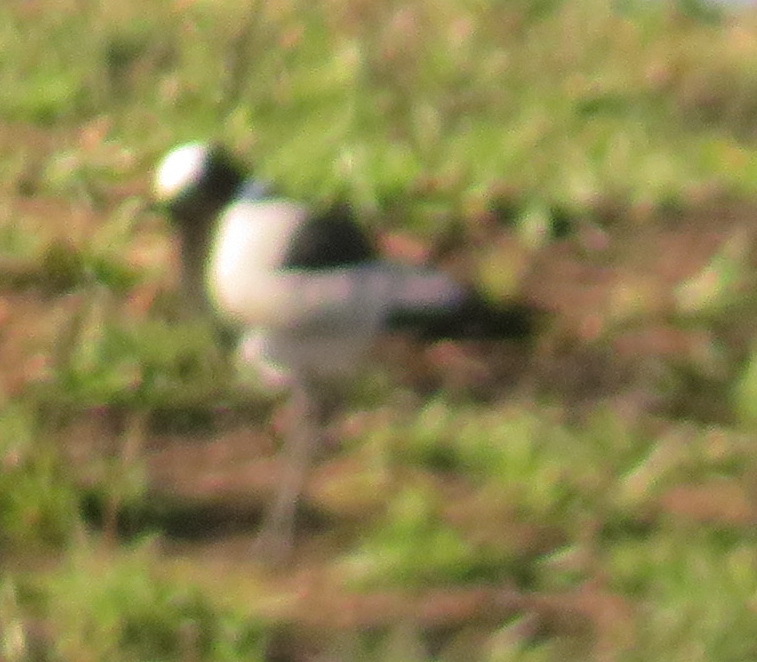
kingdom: Animalia
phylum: Chordata
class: Aves
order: Charadriiformes
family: Charadriidae
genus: Vanellus
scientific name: Vanellus armatus
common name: Blacksmith lapwing
